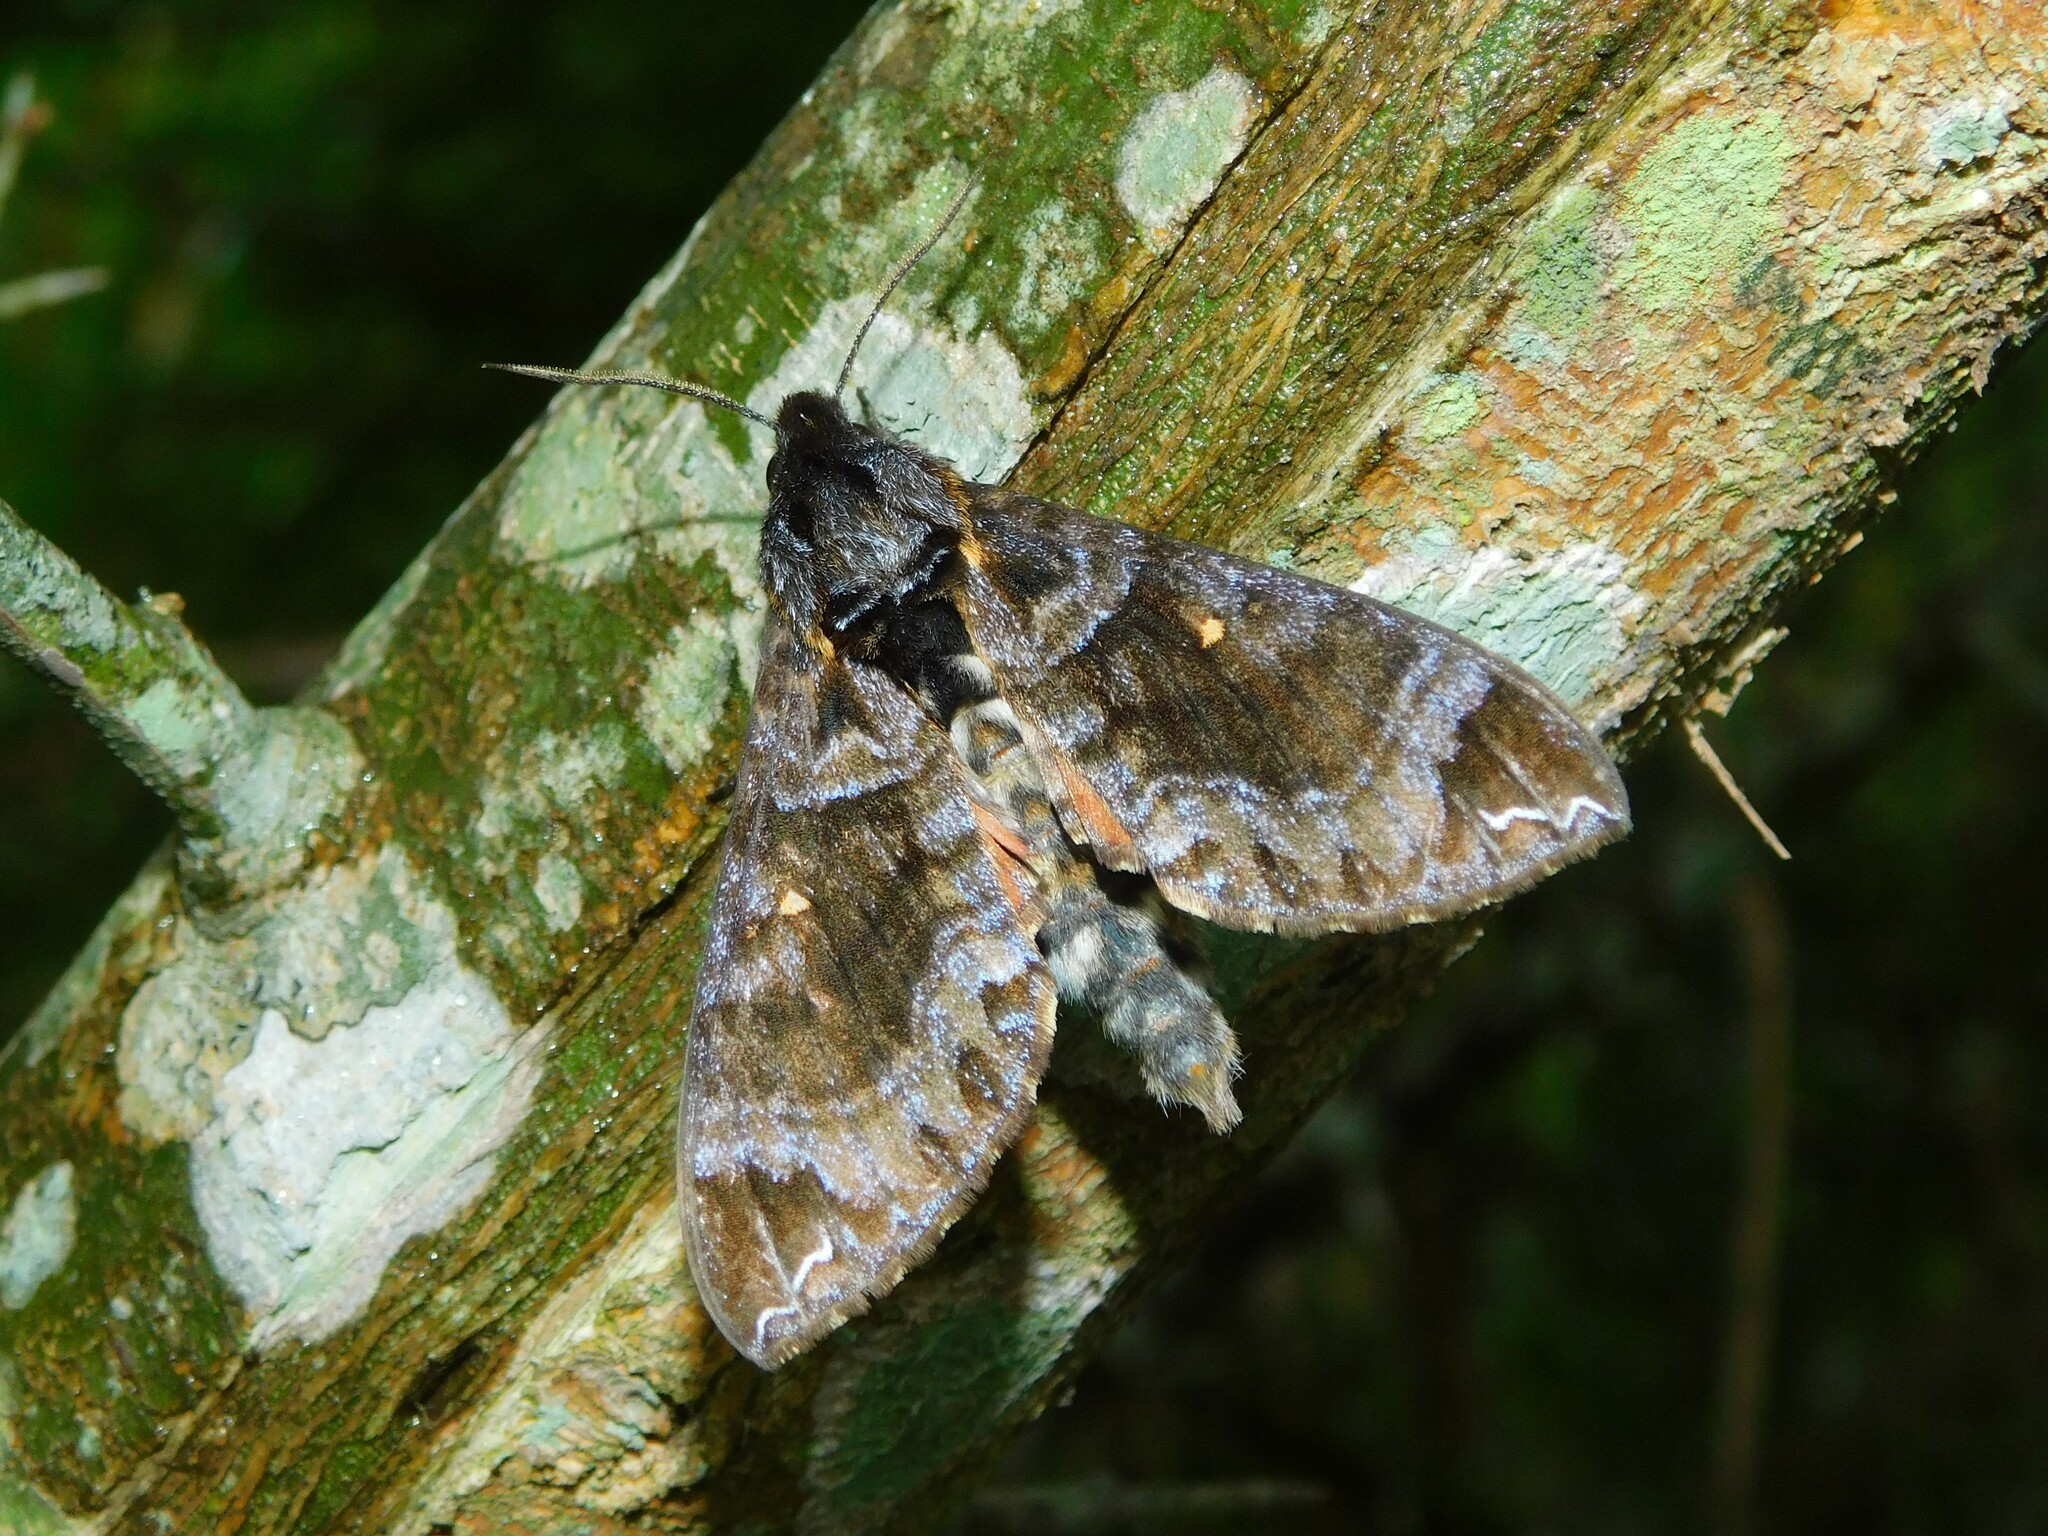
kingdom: Animalia
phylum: Arthropoda
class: Insecta
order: Lepidoptera
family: Sphingidae
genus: Dovania
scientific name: Dovania poecila
